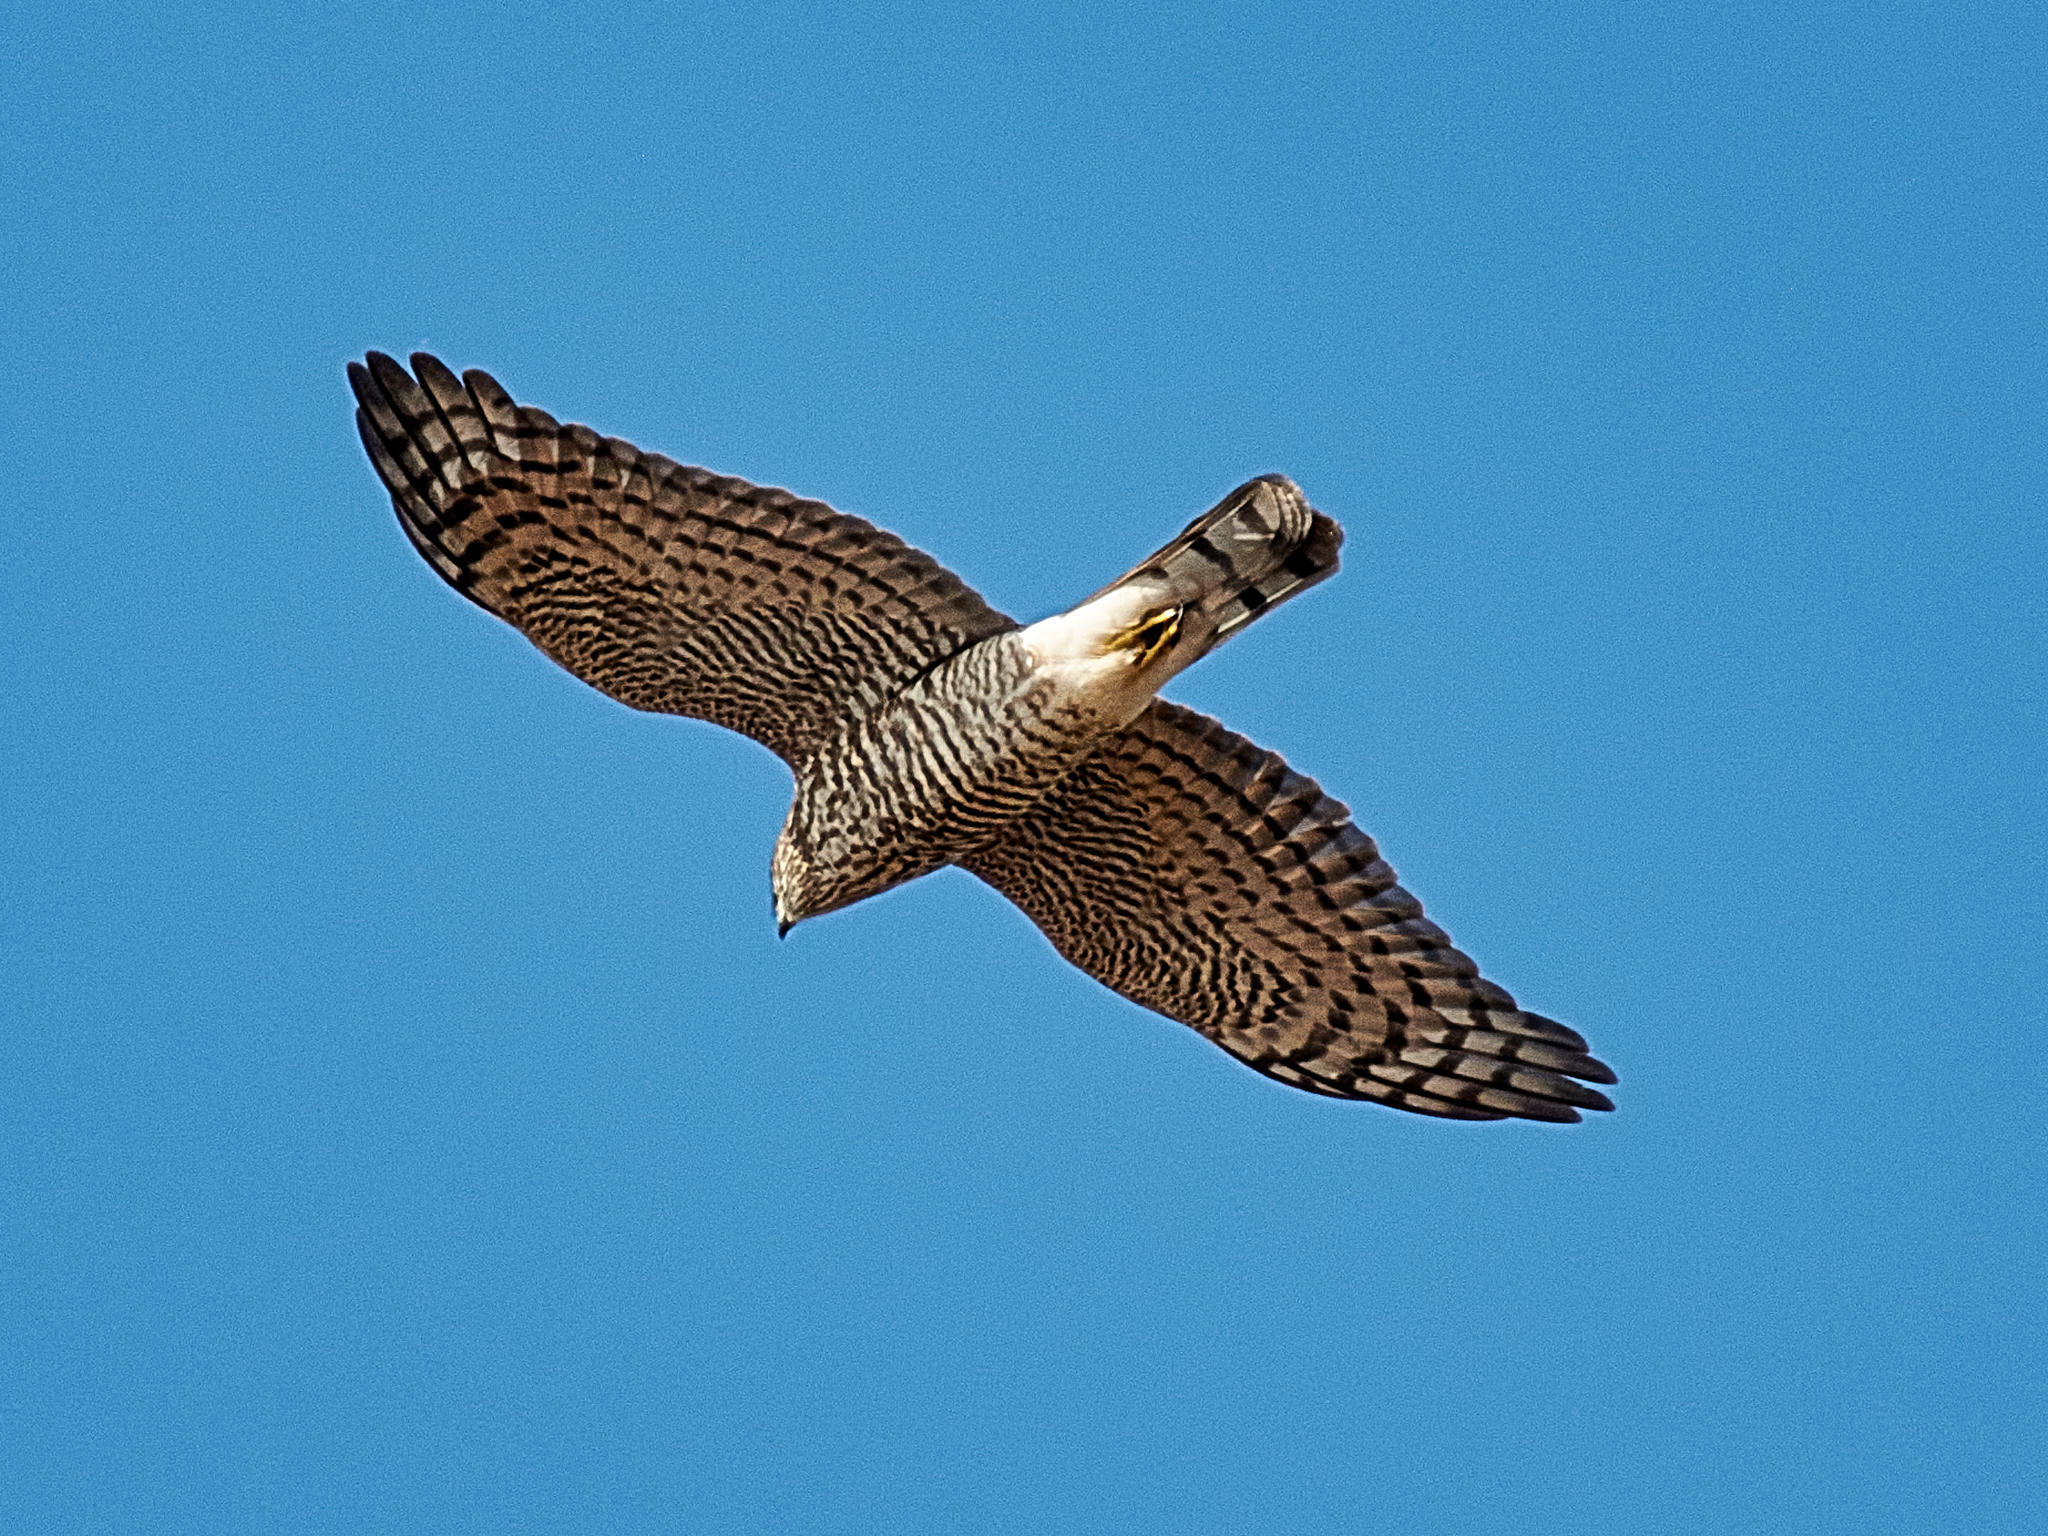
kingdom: Animalia
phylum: Chordata
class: Aves
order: Accipitriformes
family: Accipitridae
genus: Accipiter
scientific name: Accipiter nisus
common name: Eurasian sparrowhawk
